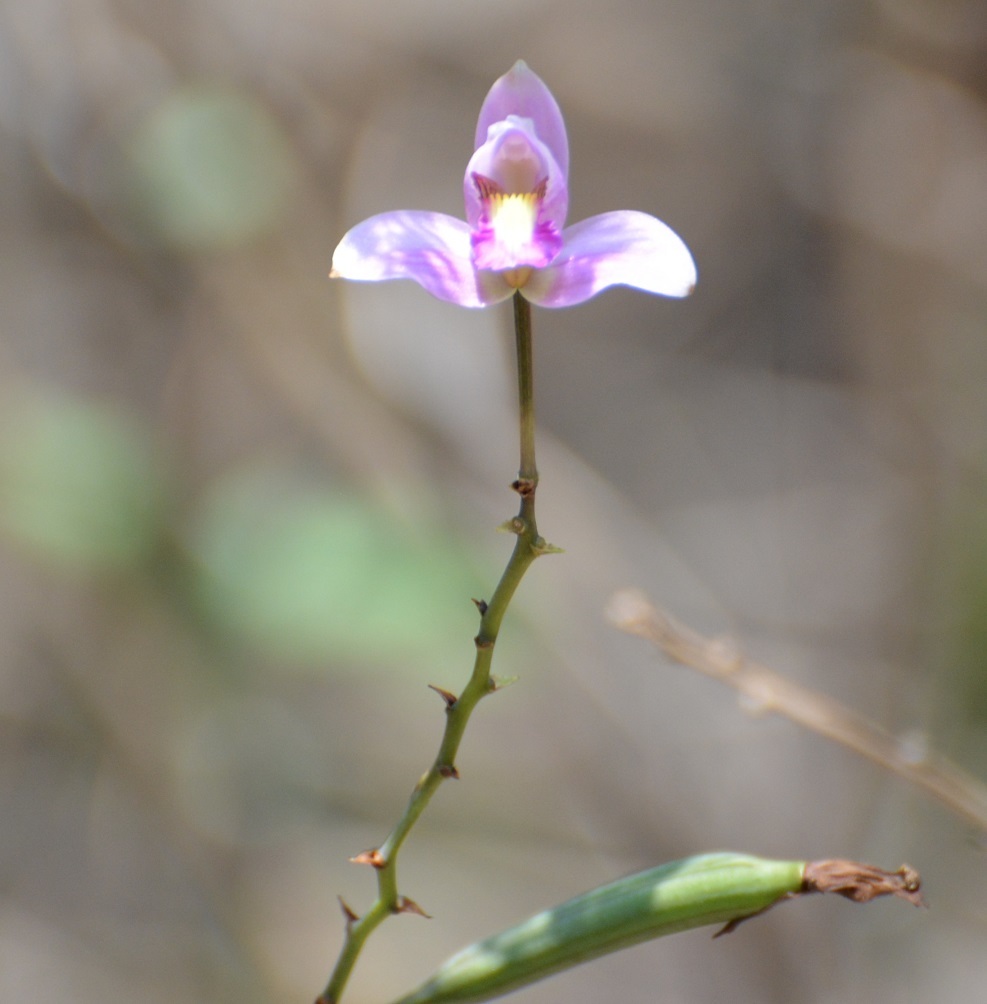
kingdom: Plantae
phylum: Tracheophyta
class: Liliopsida
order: Asparagales
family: Orchidaceae
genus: Bletia
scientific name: Bletia purpurea
